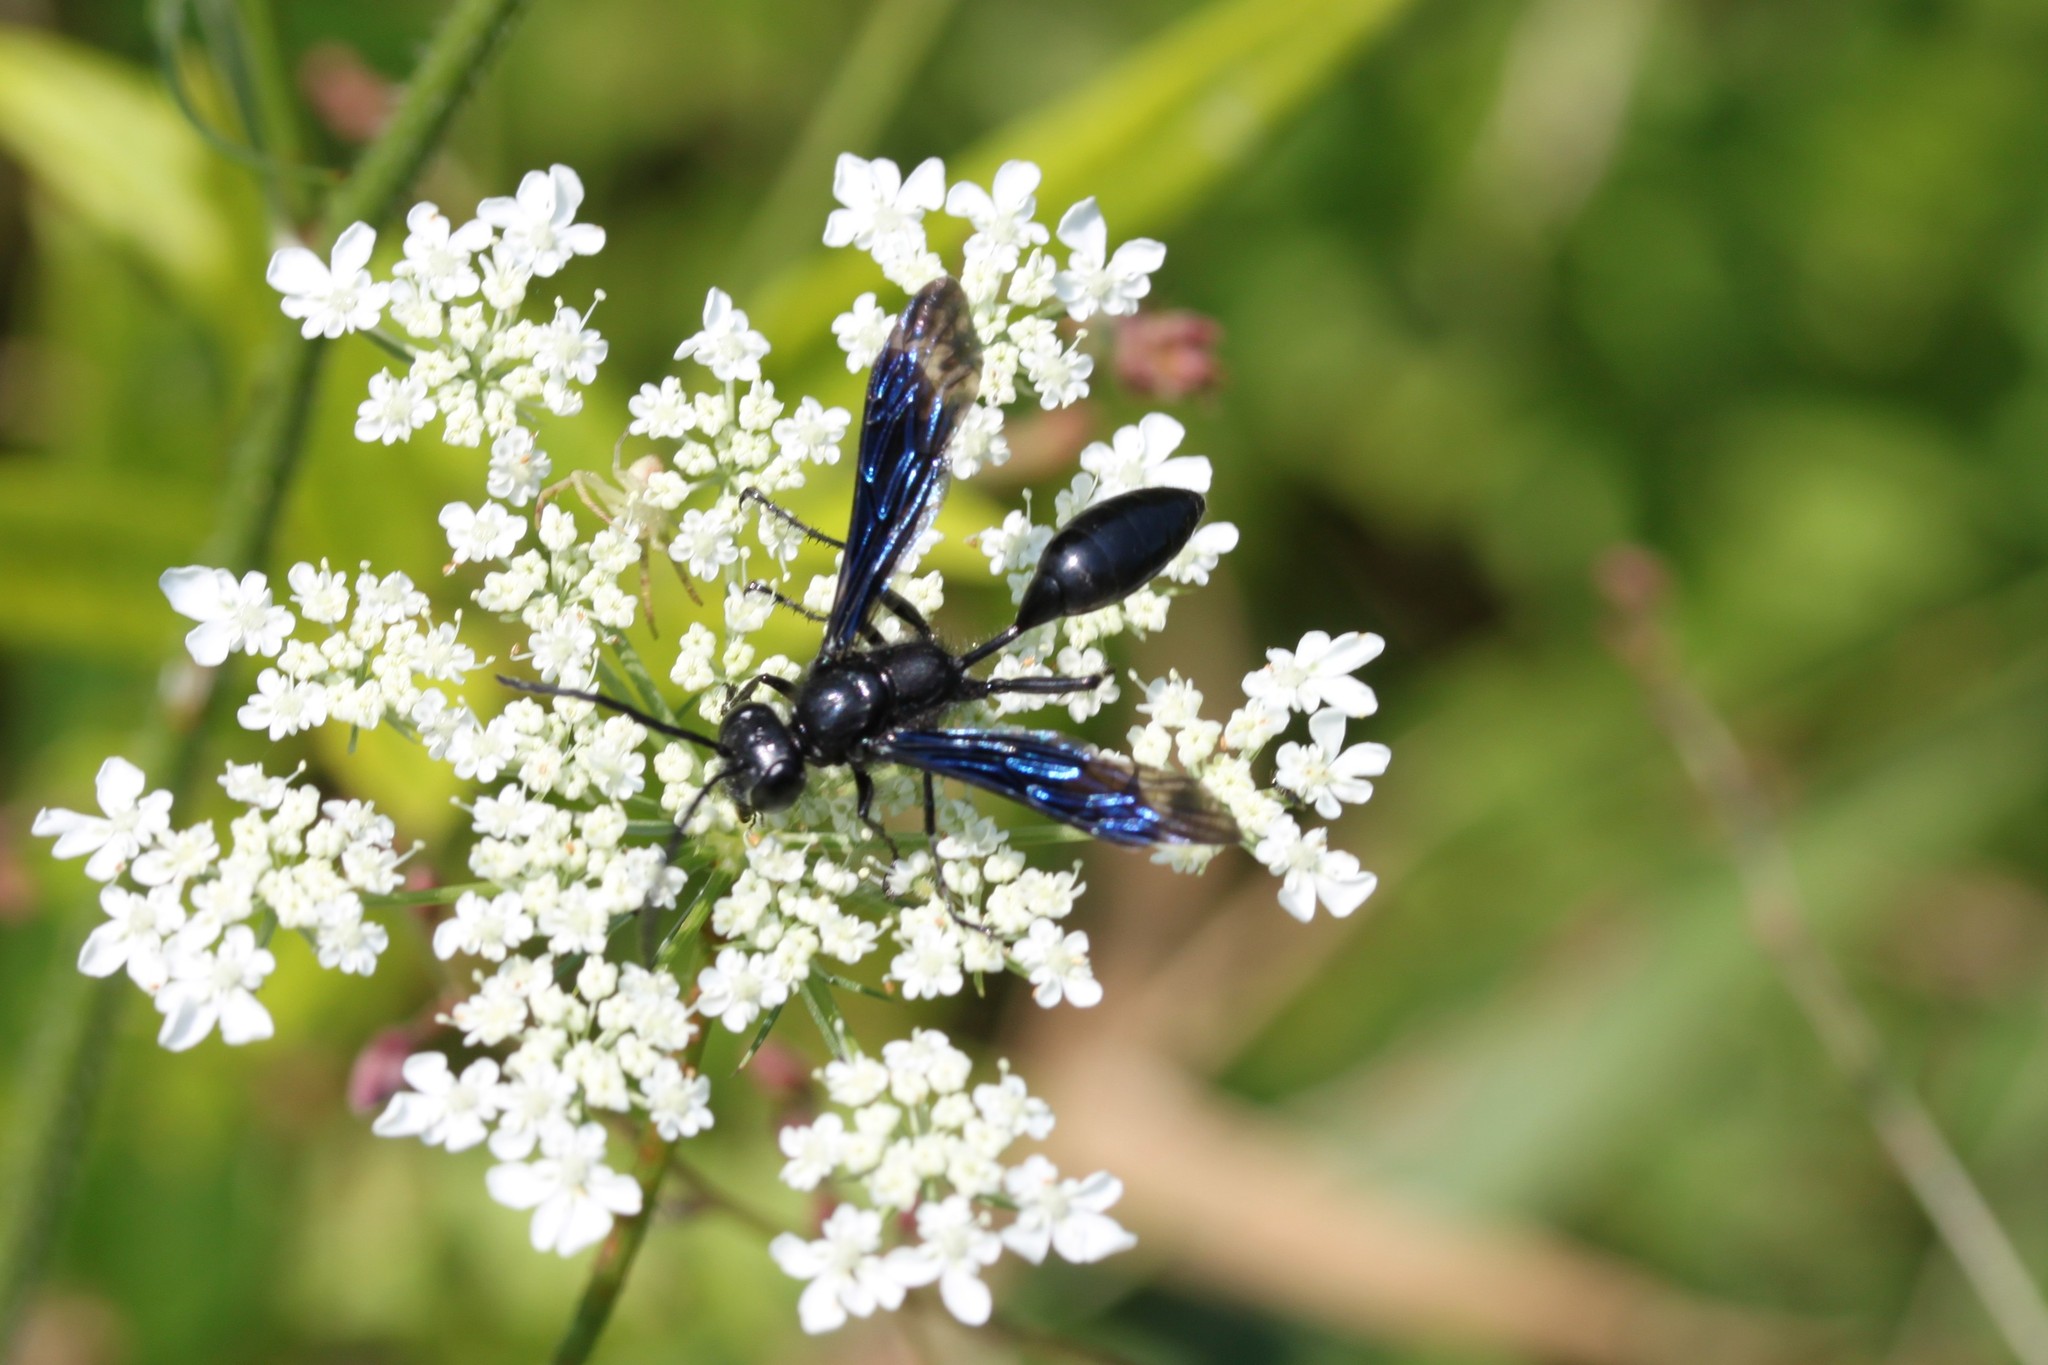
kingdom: Animalia
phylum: Arthropoda
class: Insecta
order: Hymenoptera
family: Sphecidae
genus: Isodontia
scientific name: Isodontia philadelphica
